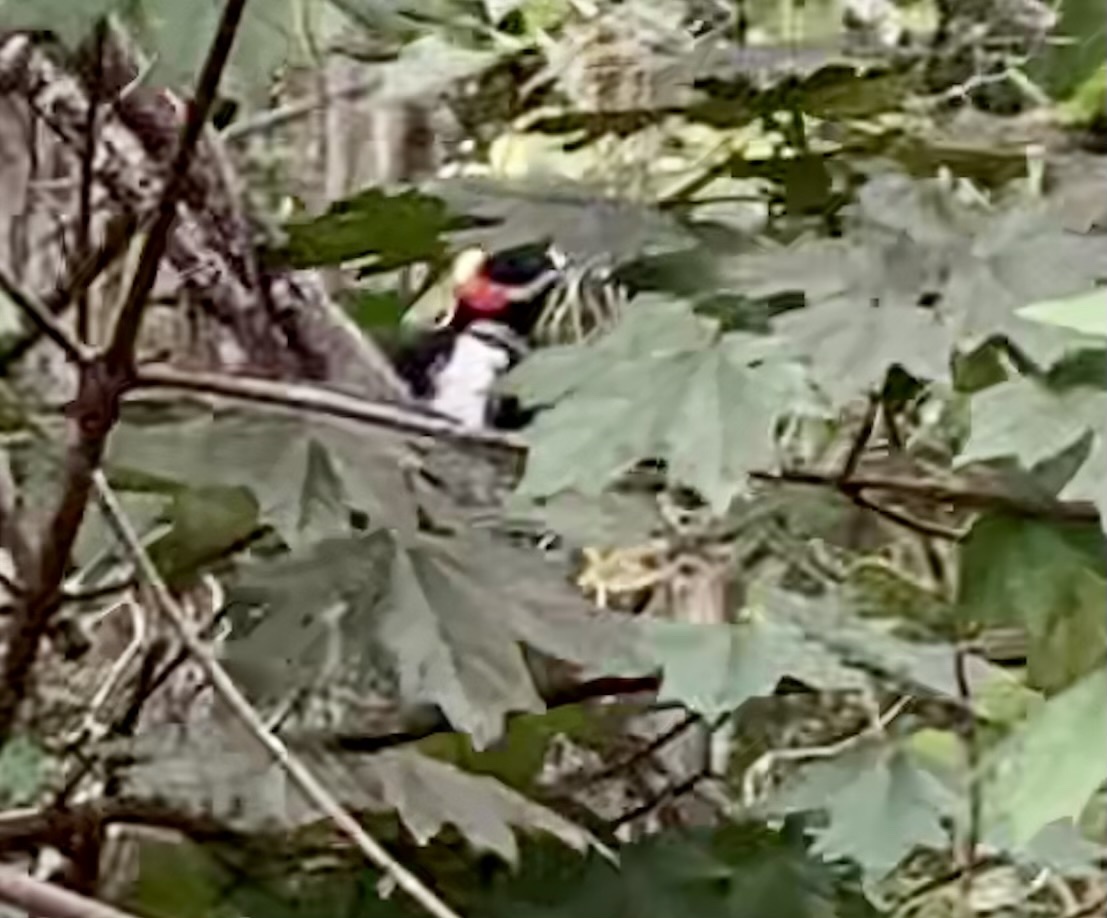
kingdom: Animalia
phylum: Chordata
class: Aves
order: Piciformes
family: Picidae
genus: Dryobates
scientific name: Dryobates pubescens
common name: Downy woodpecker
